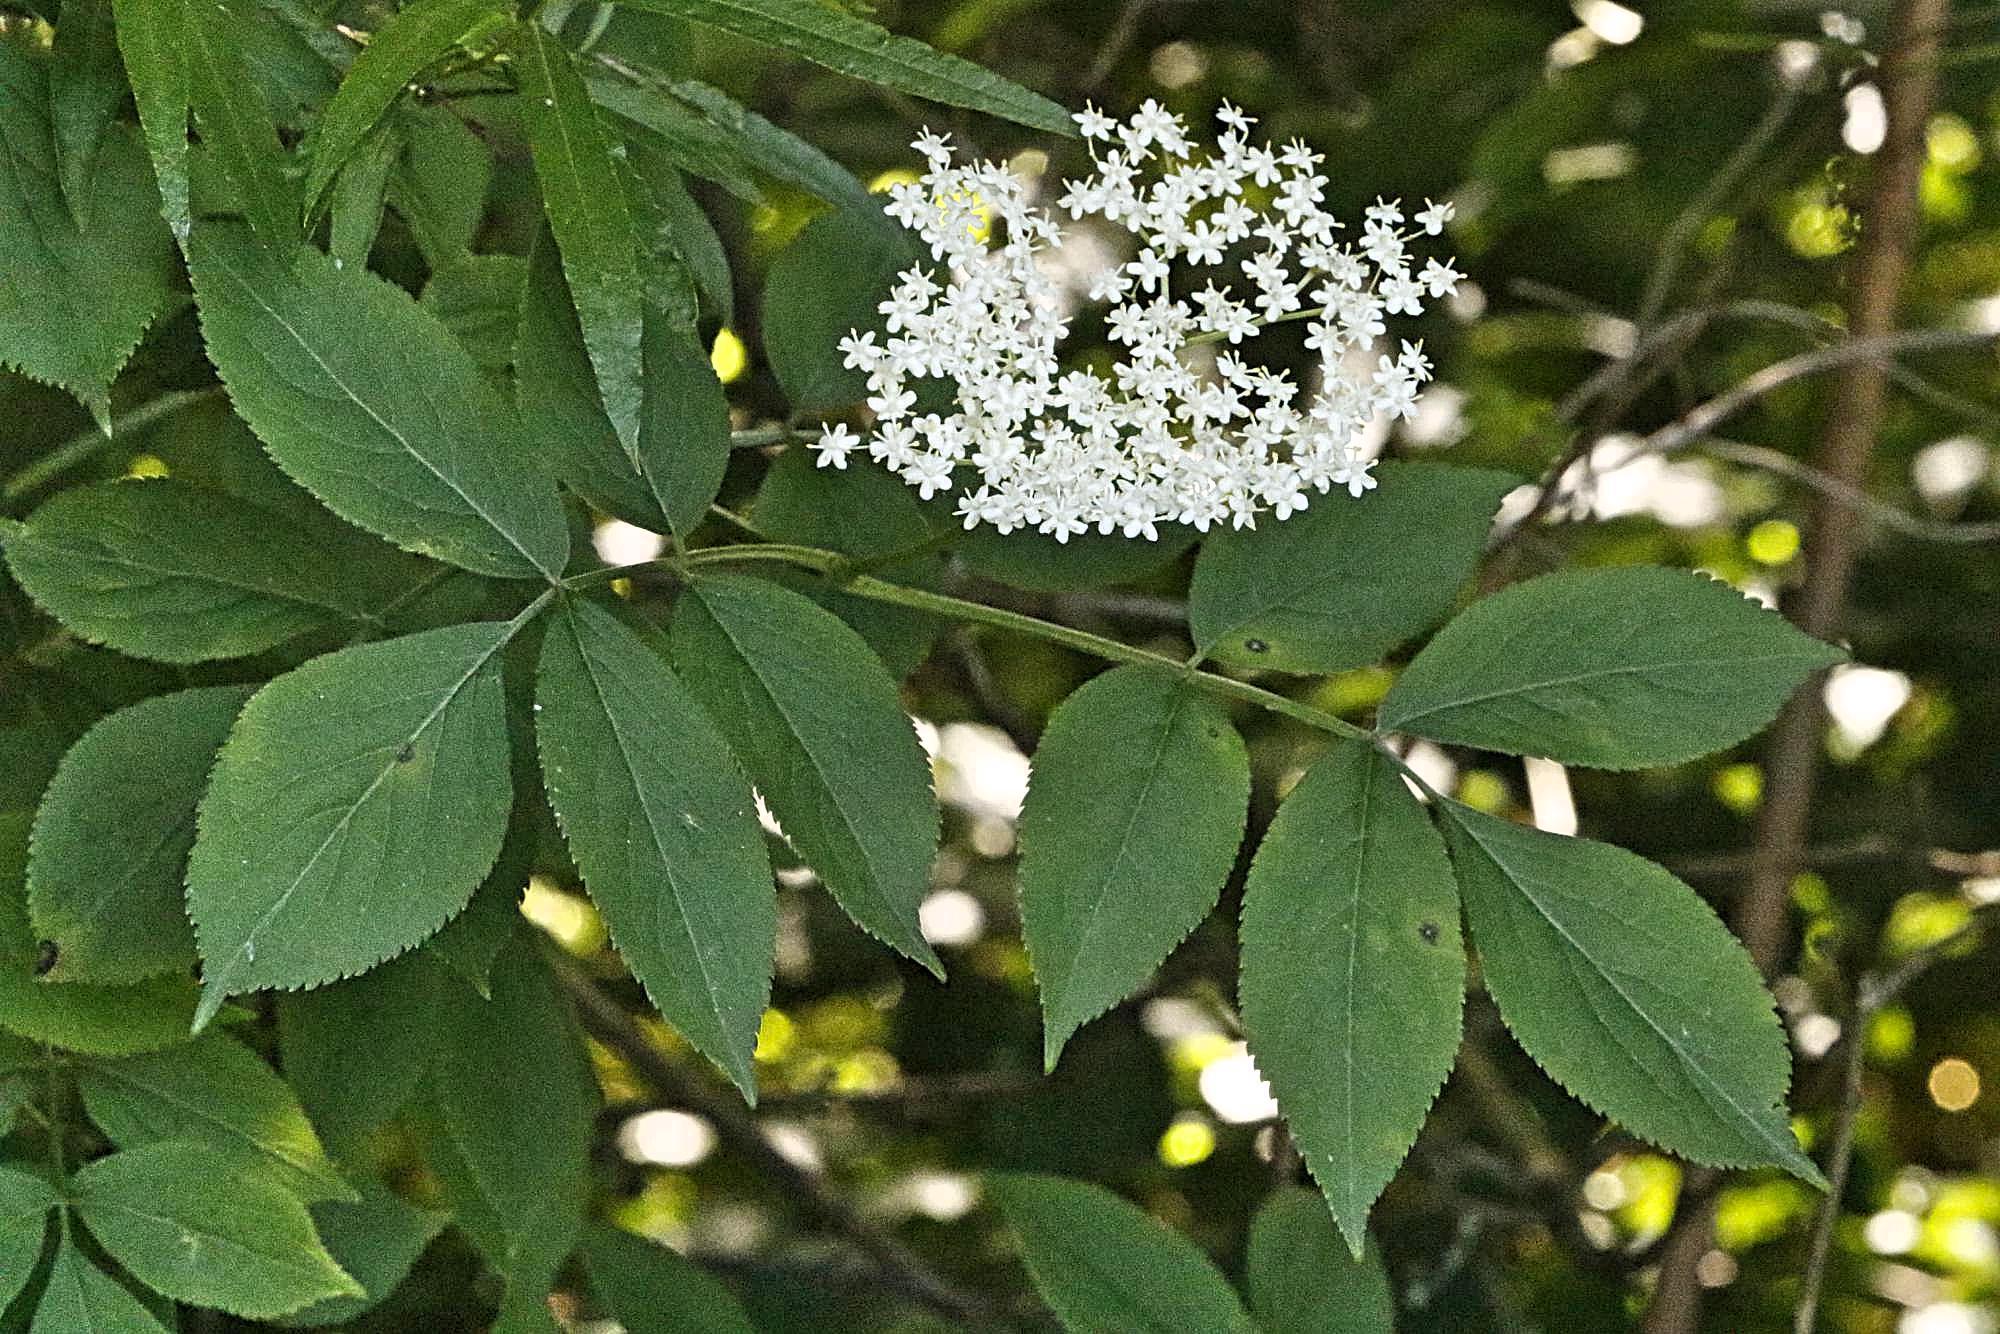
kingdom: Plantae
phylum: Tracheophyta
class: Magnoliopsida
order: Dipsacales
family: Viburnaceae
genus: Sambucus
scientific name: Sambucus nigra
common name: Elder
